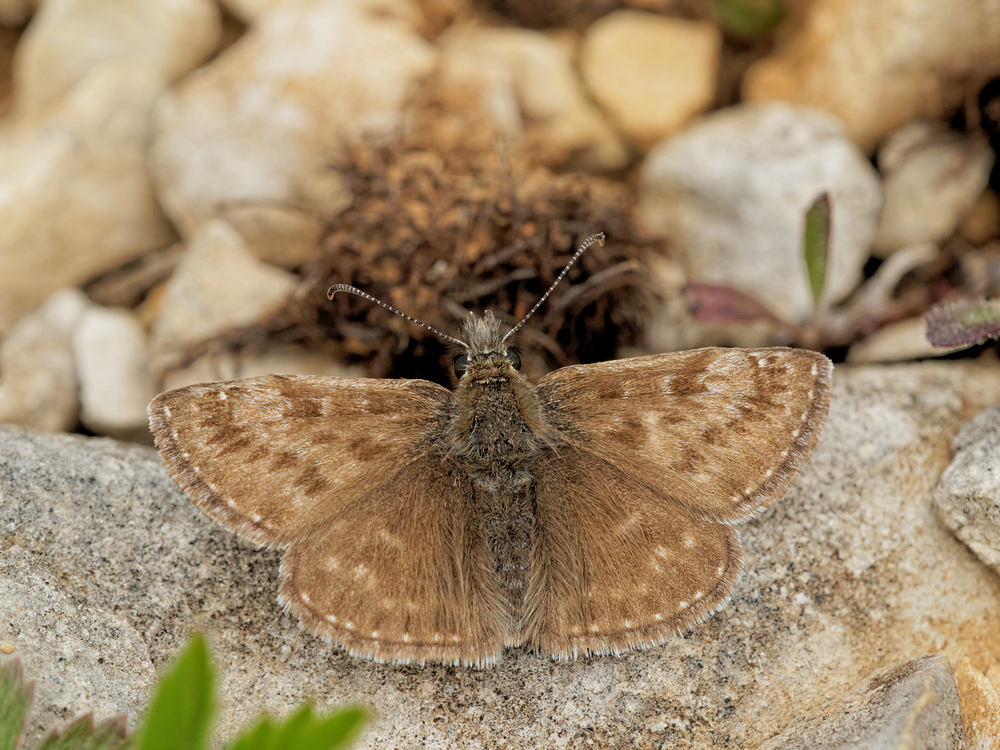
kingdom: Animalia
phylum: Arthropoda
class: Insecta
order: Lepidoptera
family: Hesperiidae
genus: Erynnis
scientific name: Erynnis tages
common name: Dingy skipper
